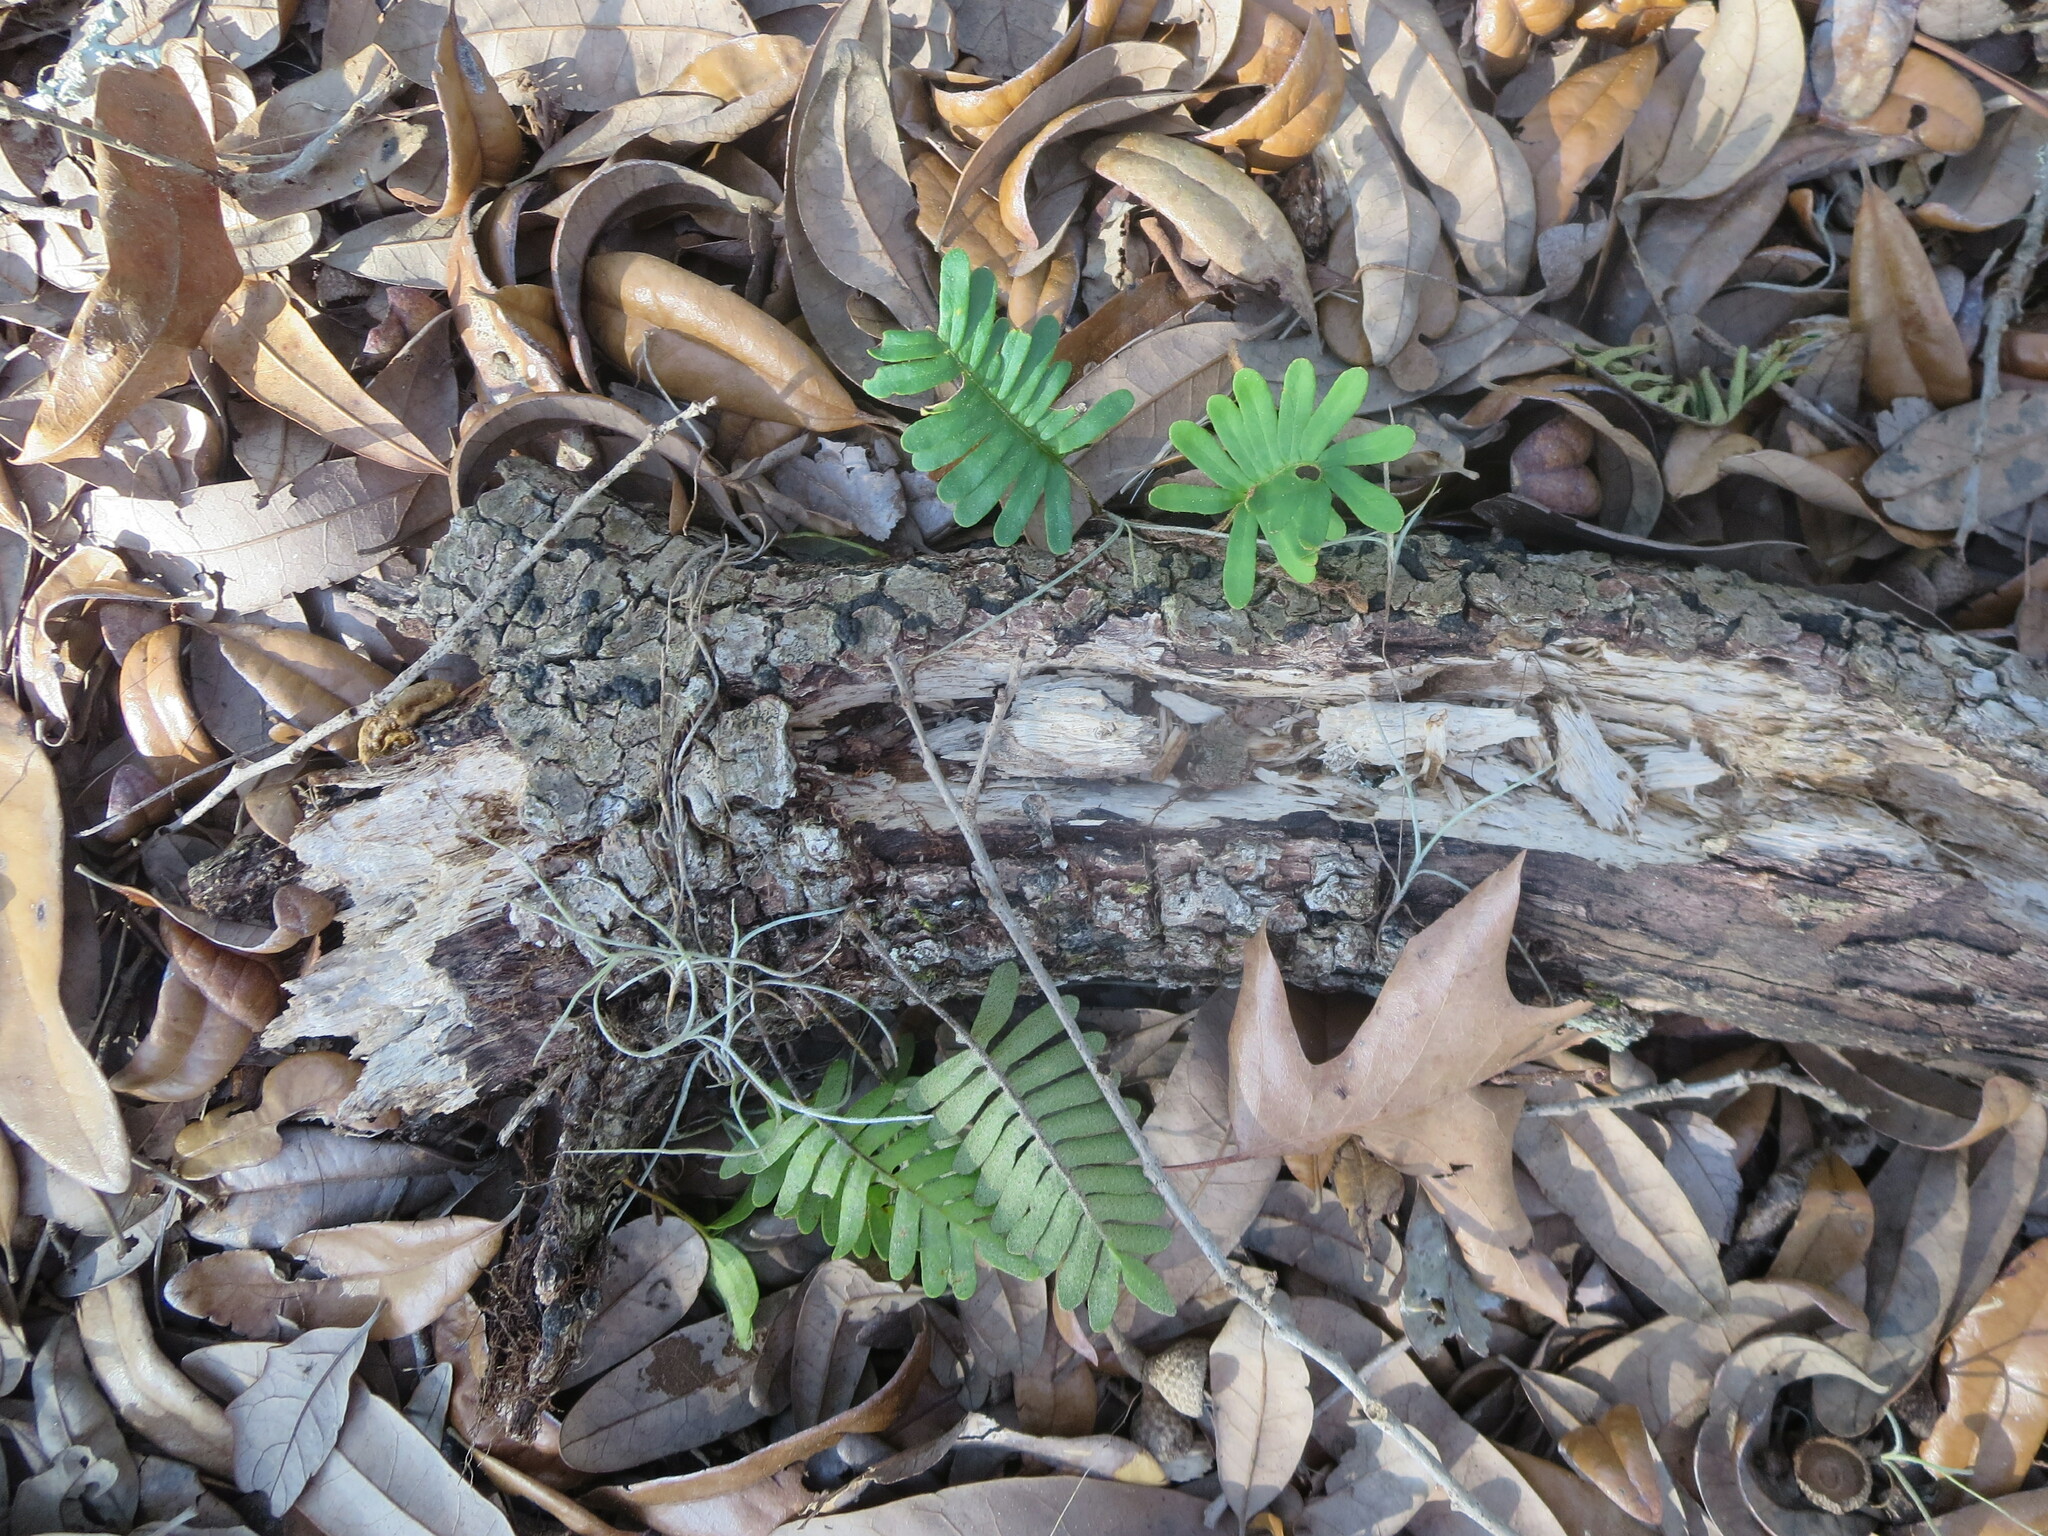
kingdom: Plantae
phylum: Tracheophyta
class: Polypodiopsida
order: Polypodiales
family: Polypodiaceae
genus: Pleopeltis
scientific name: Pleopeltis michauxiana
